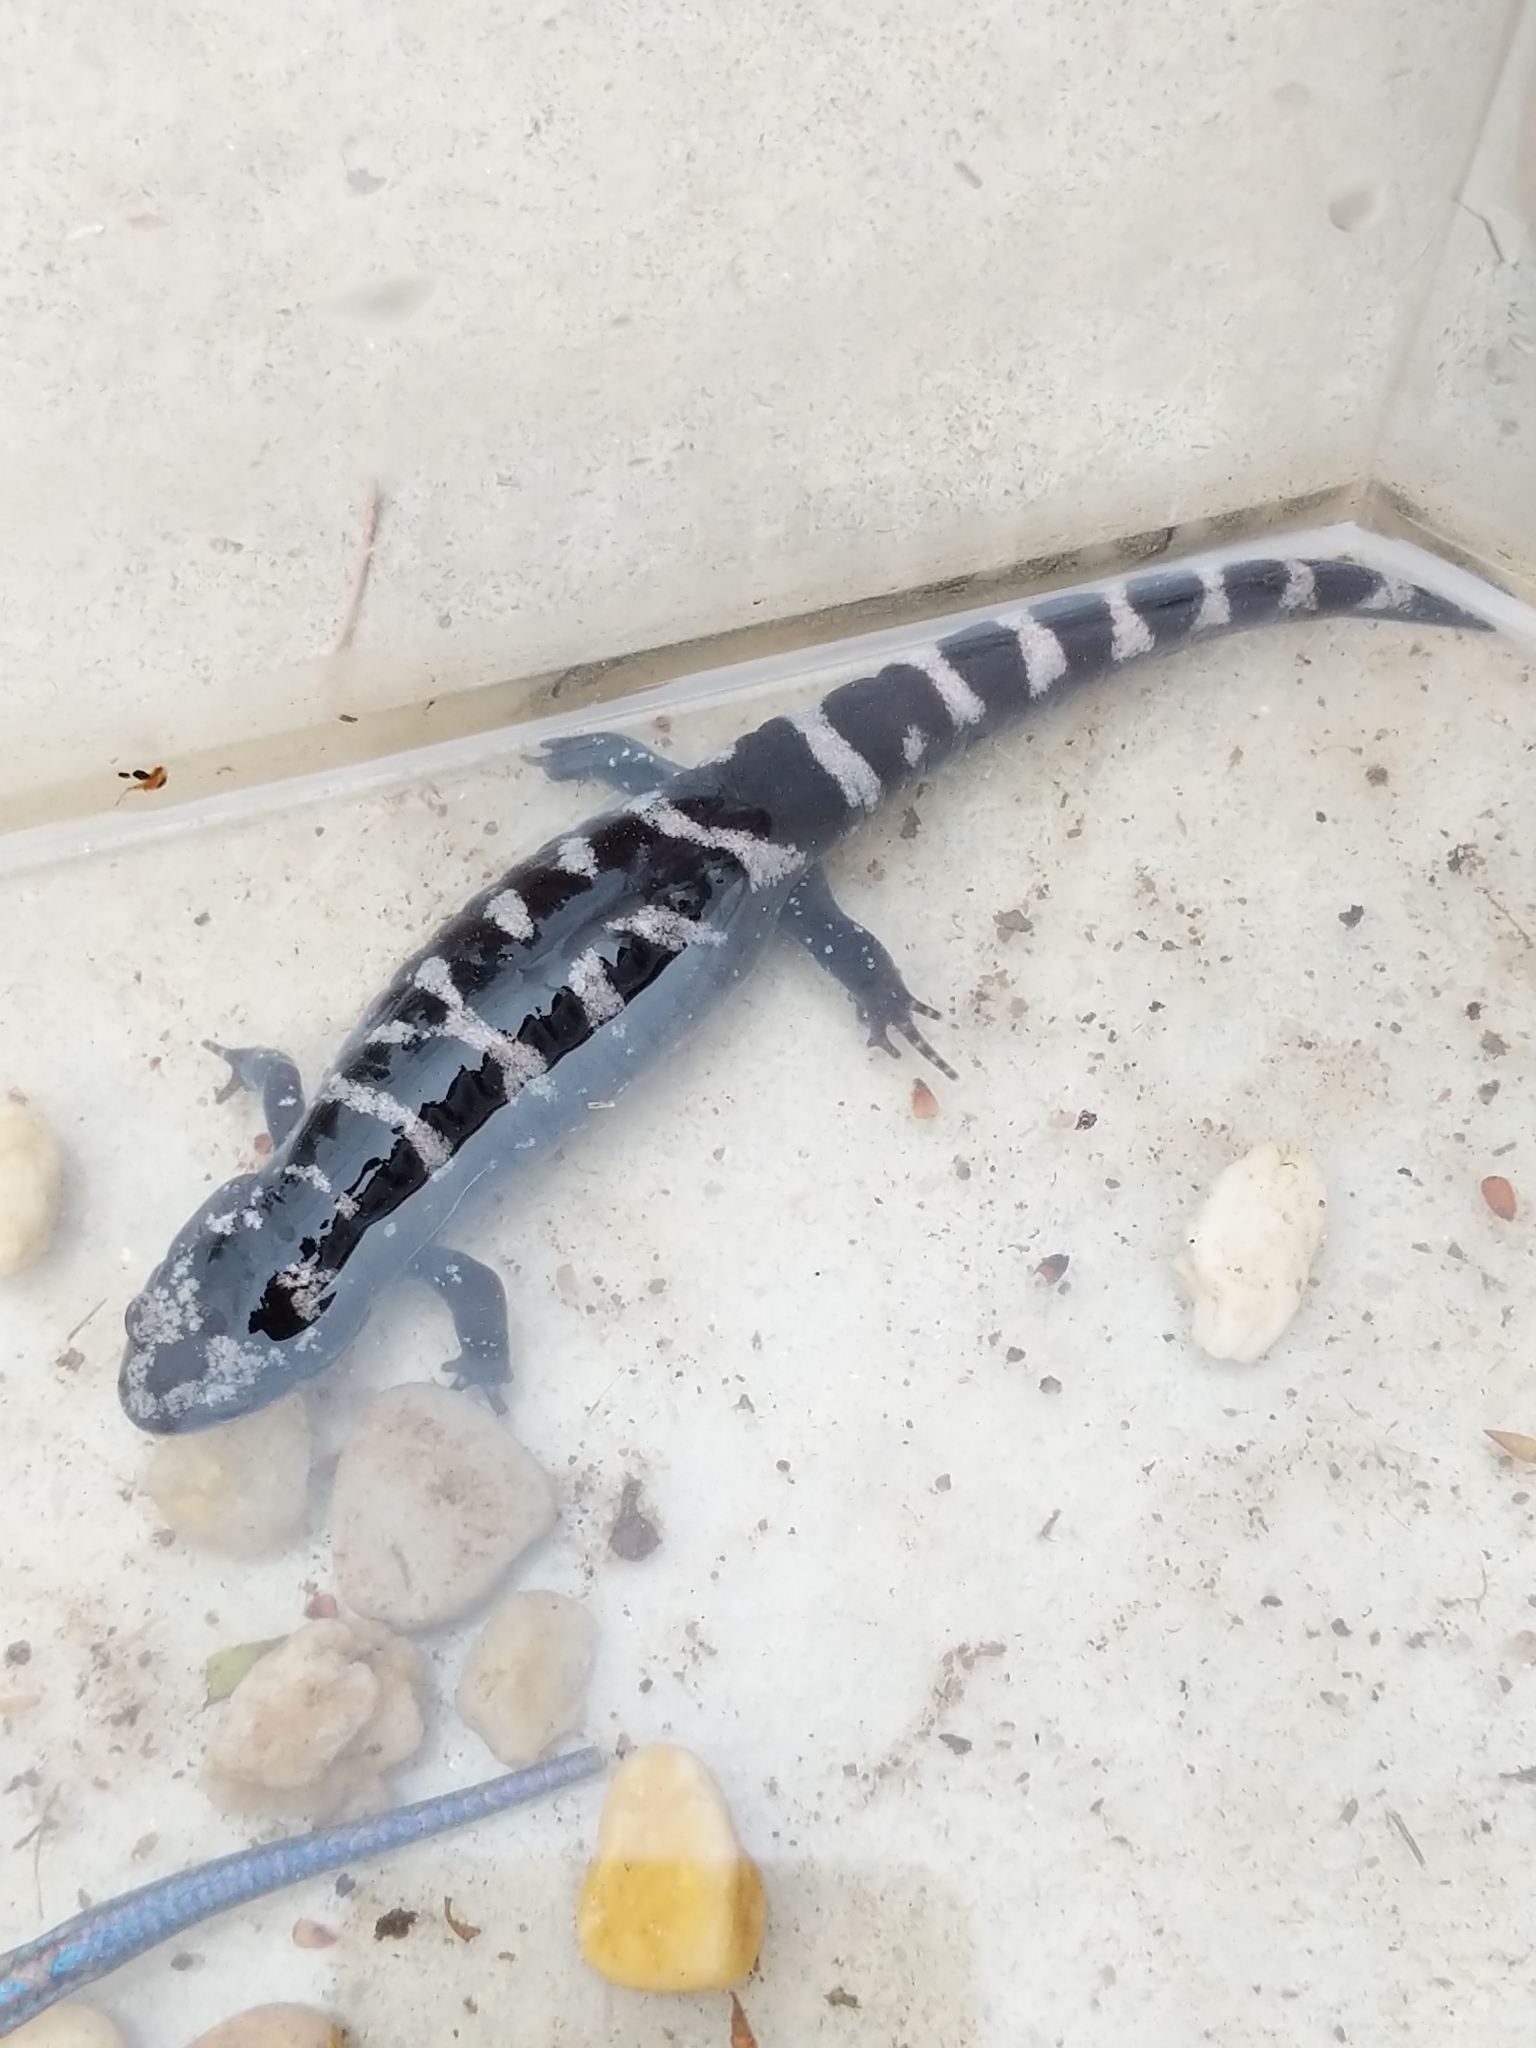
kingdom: Animalia
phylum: Chordata
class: Amphibia
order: Caudata
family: Ambystomatidae
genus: Ambystoma
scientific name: Ambystoma opacum
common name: Marbled salamander
